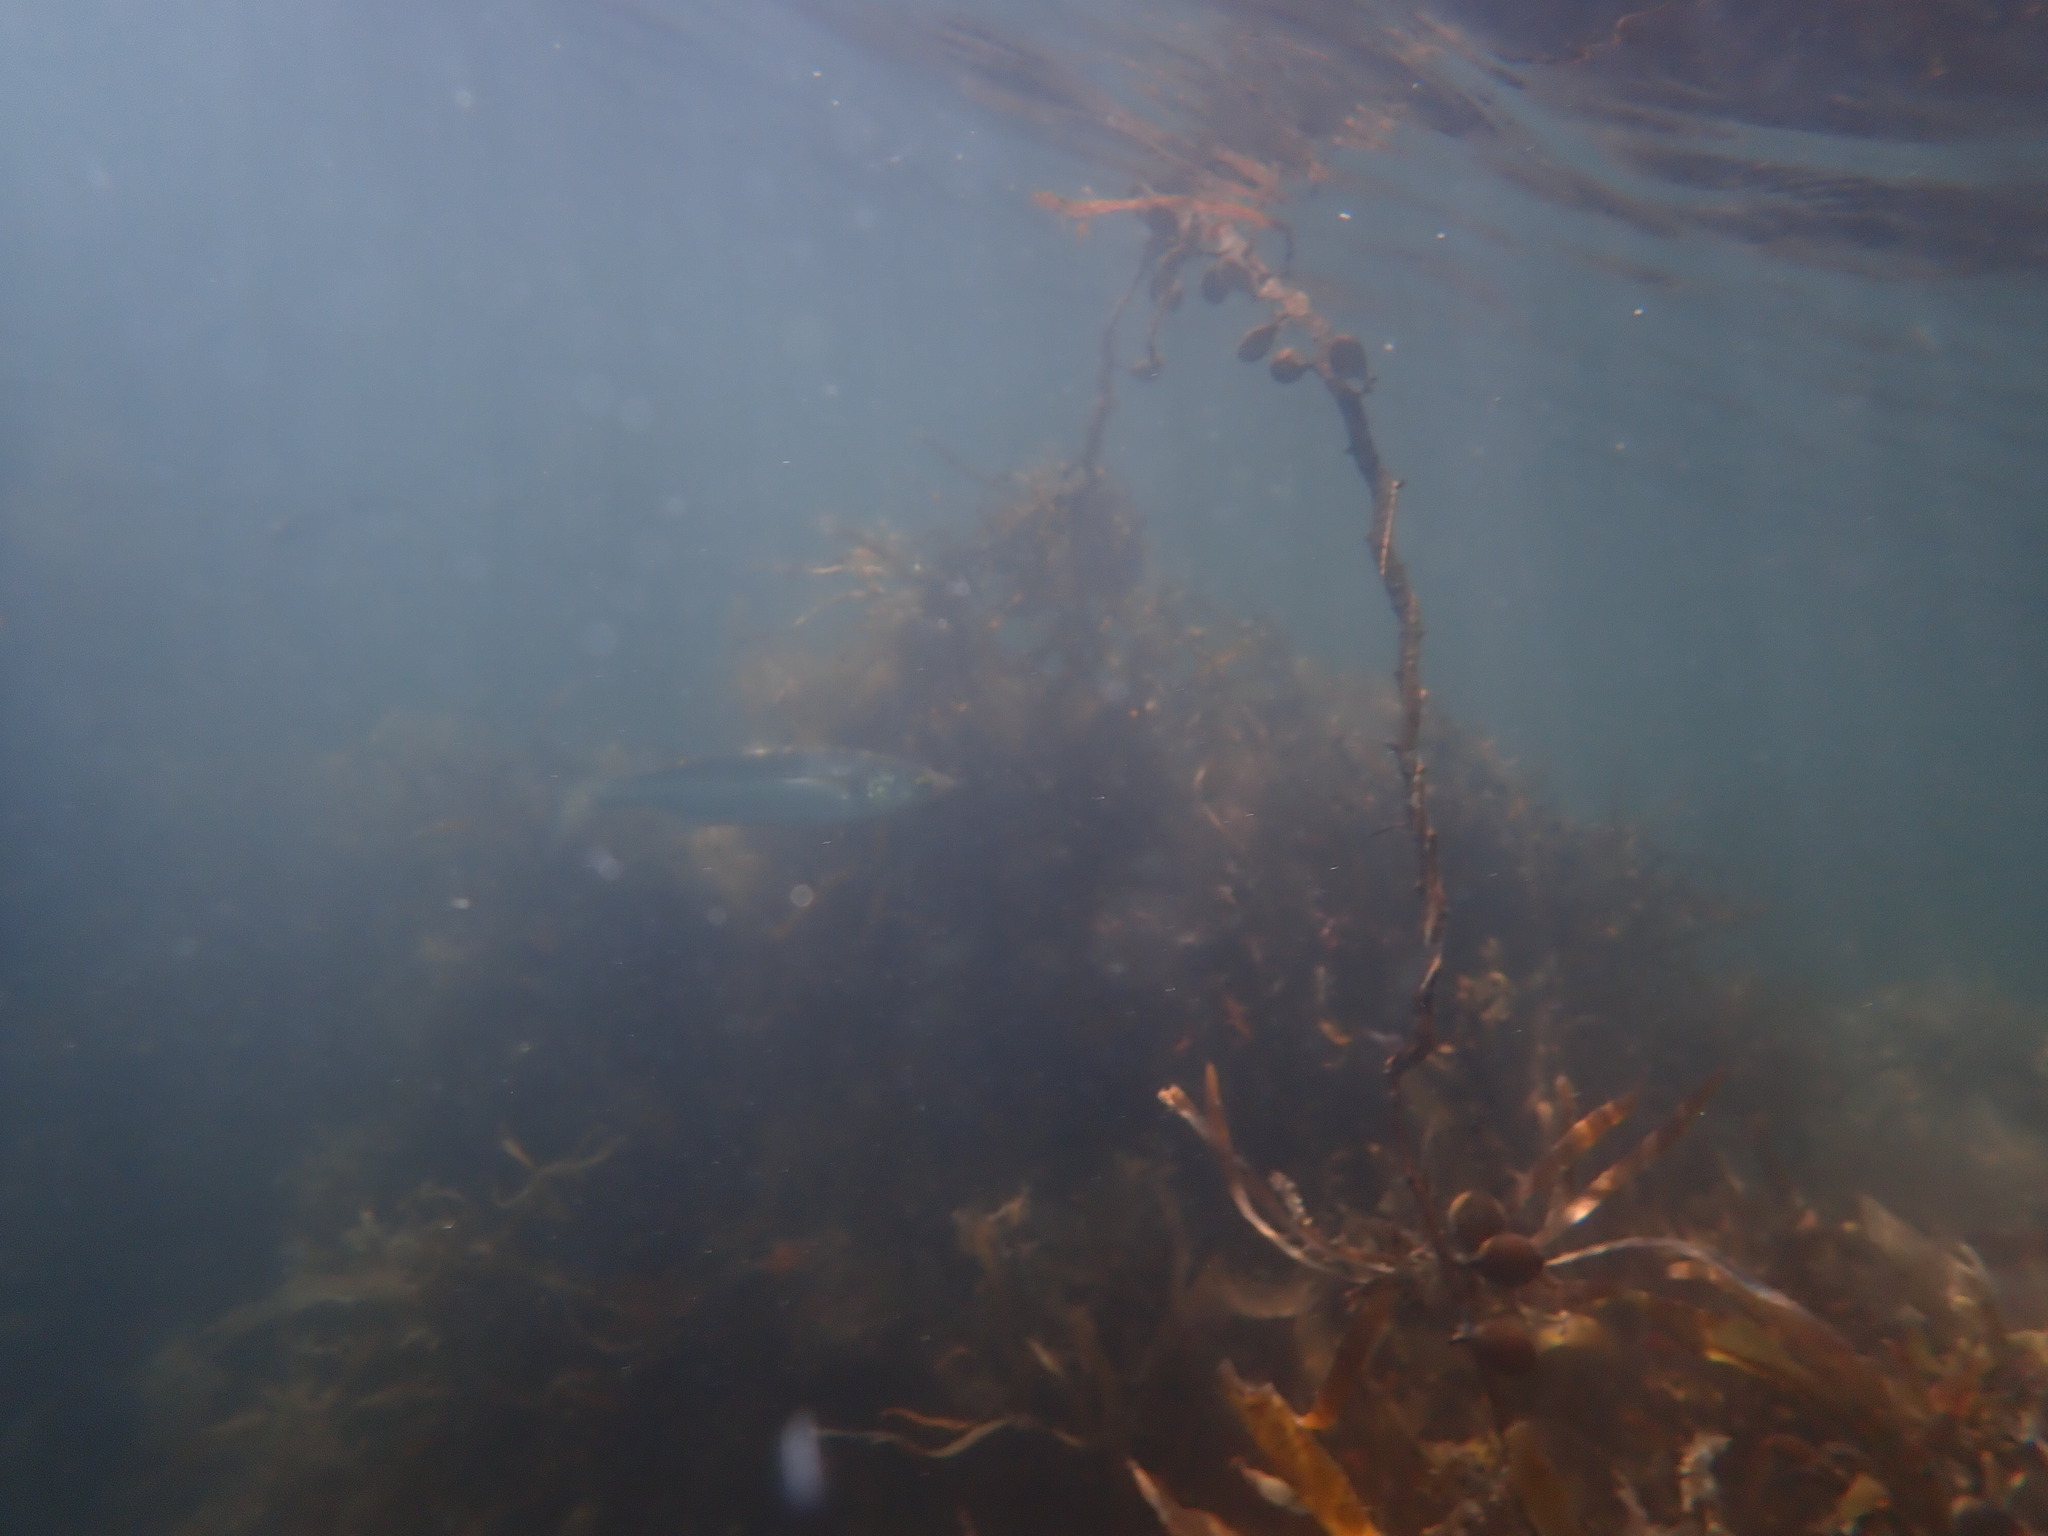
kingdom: Animalia
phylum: Chordata
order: Mugiliformes
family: Mugilidae
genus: Aldrichetta
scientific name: Aldrichetta forsteri
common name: Yellow-eye mullet
